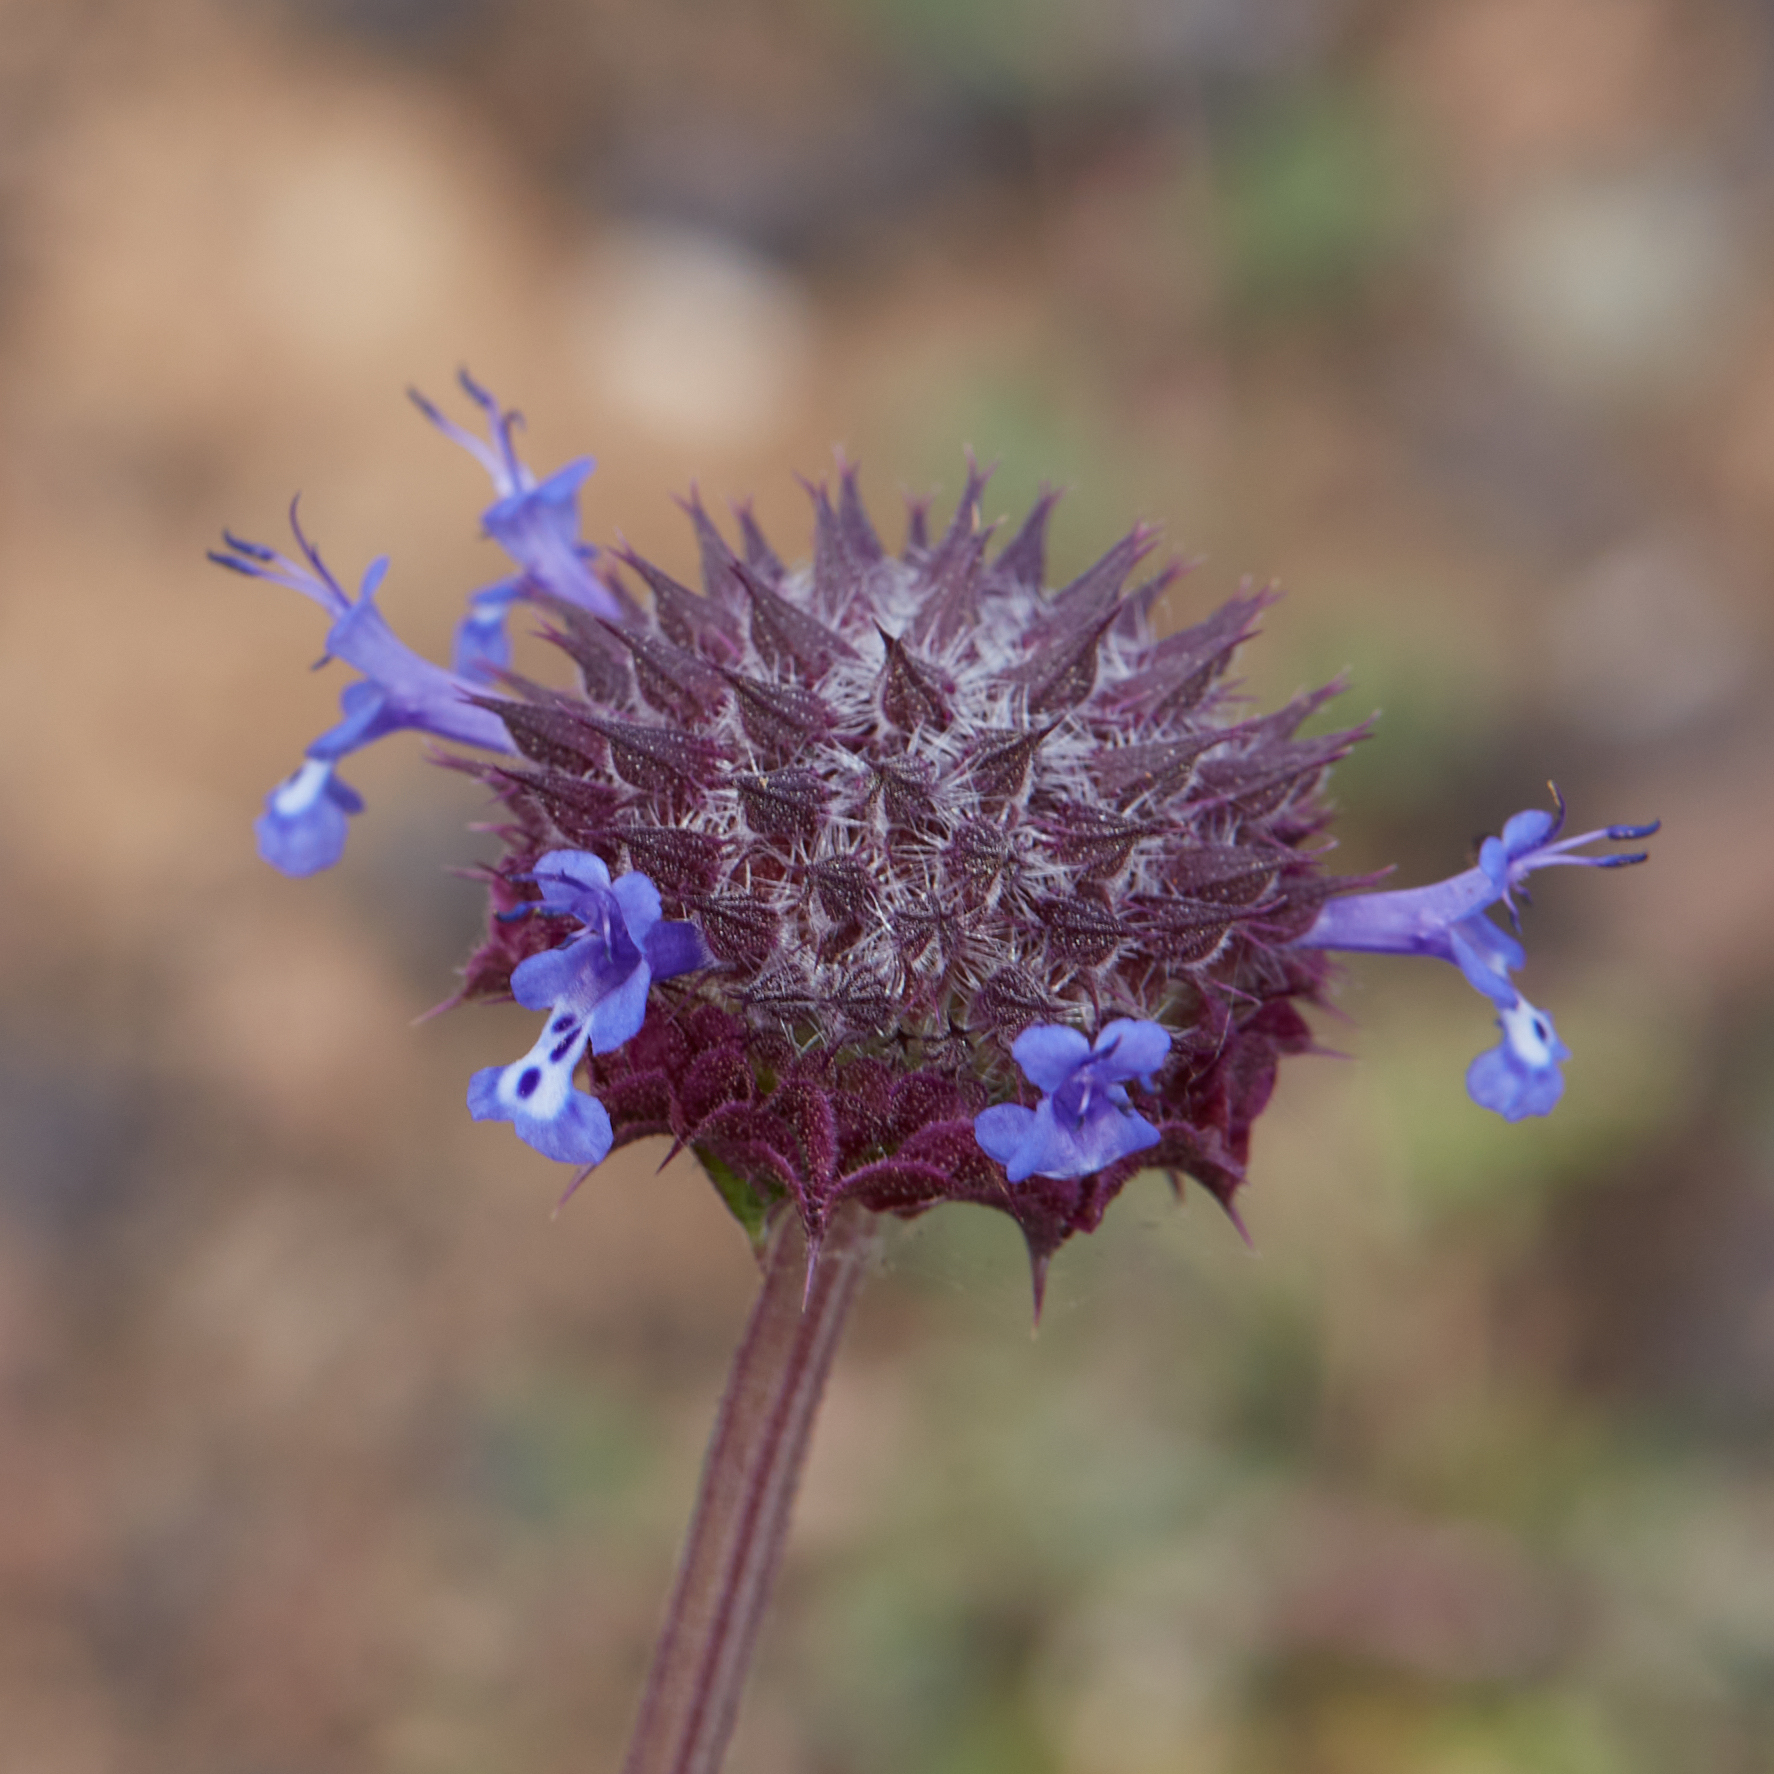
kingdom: Plantae
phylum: Tracheophyta
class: Magnoliopsida
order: Lamiales
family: Lamiaceae
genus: Salvia
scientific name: Salvia columbariae
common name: Chia
